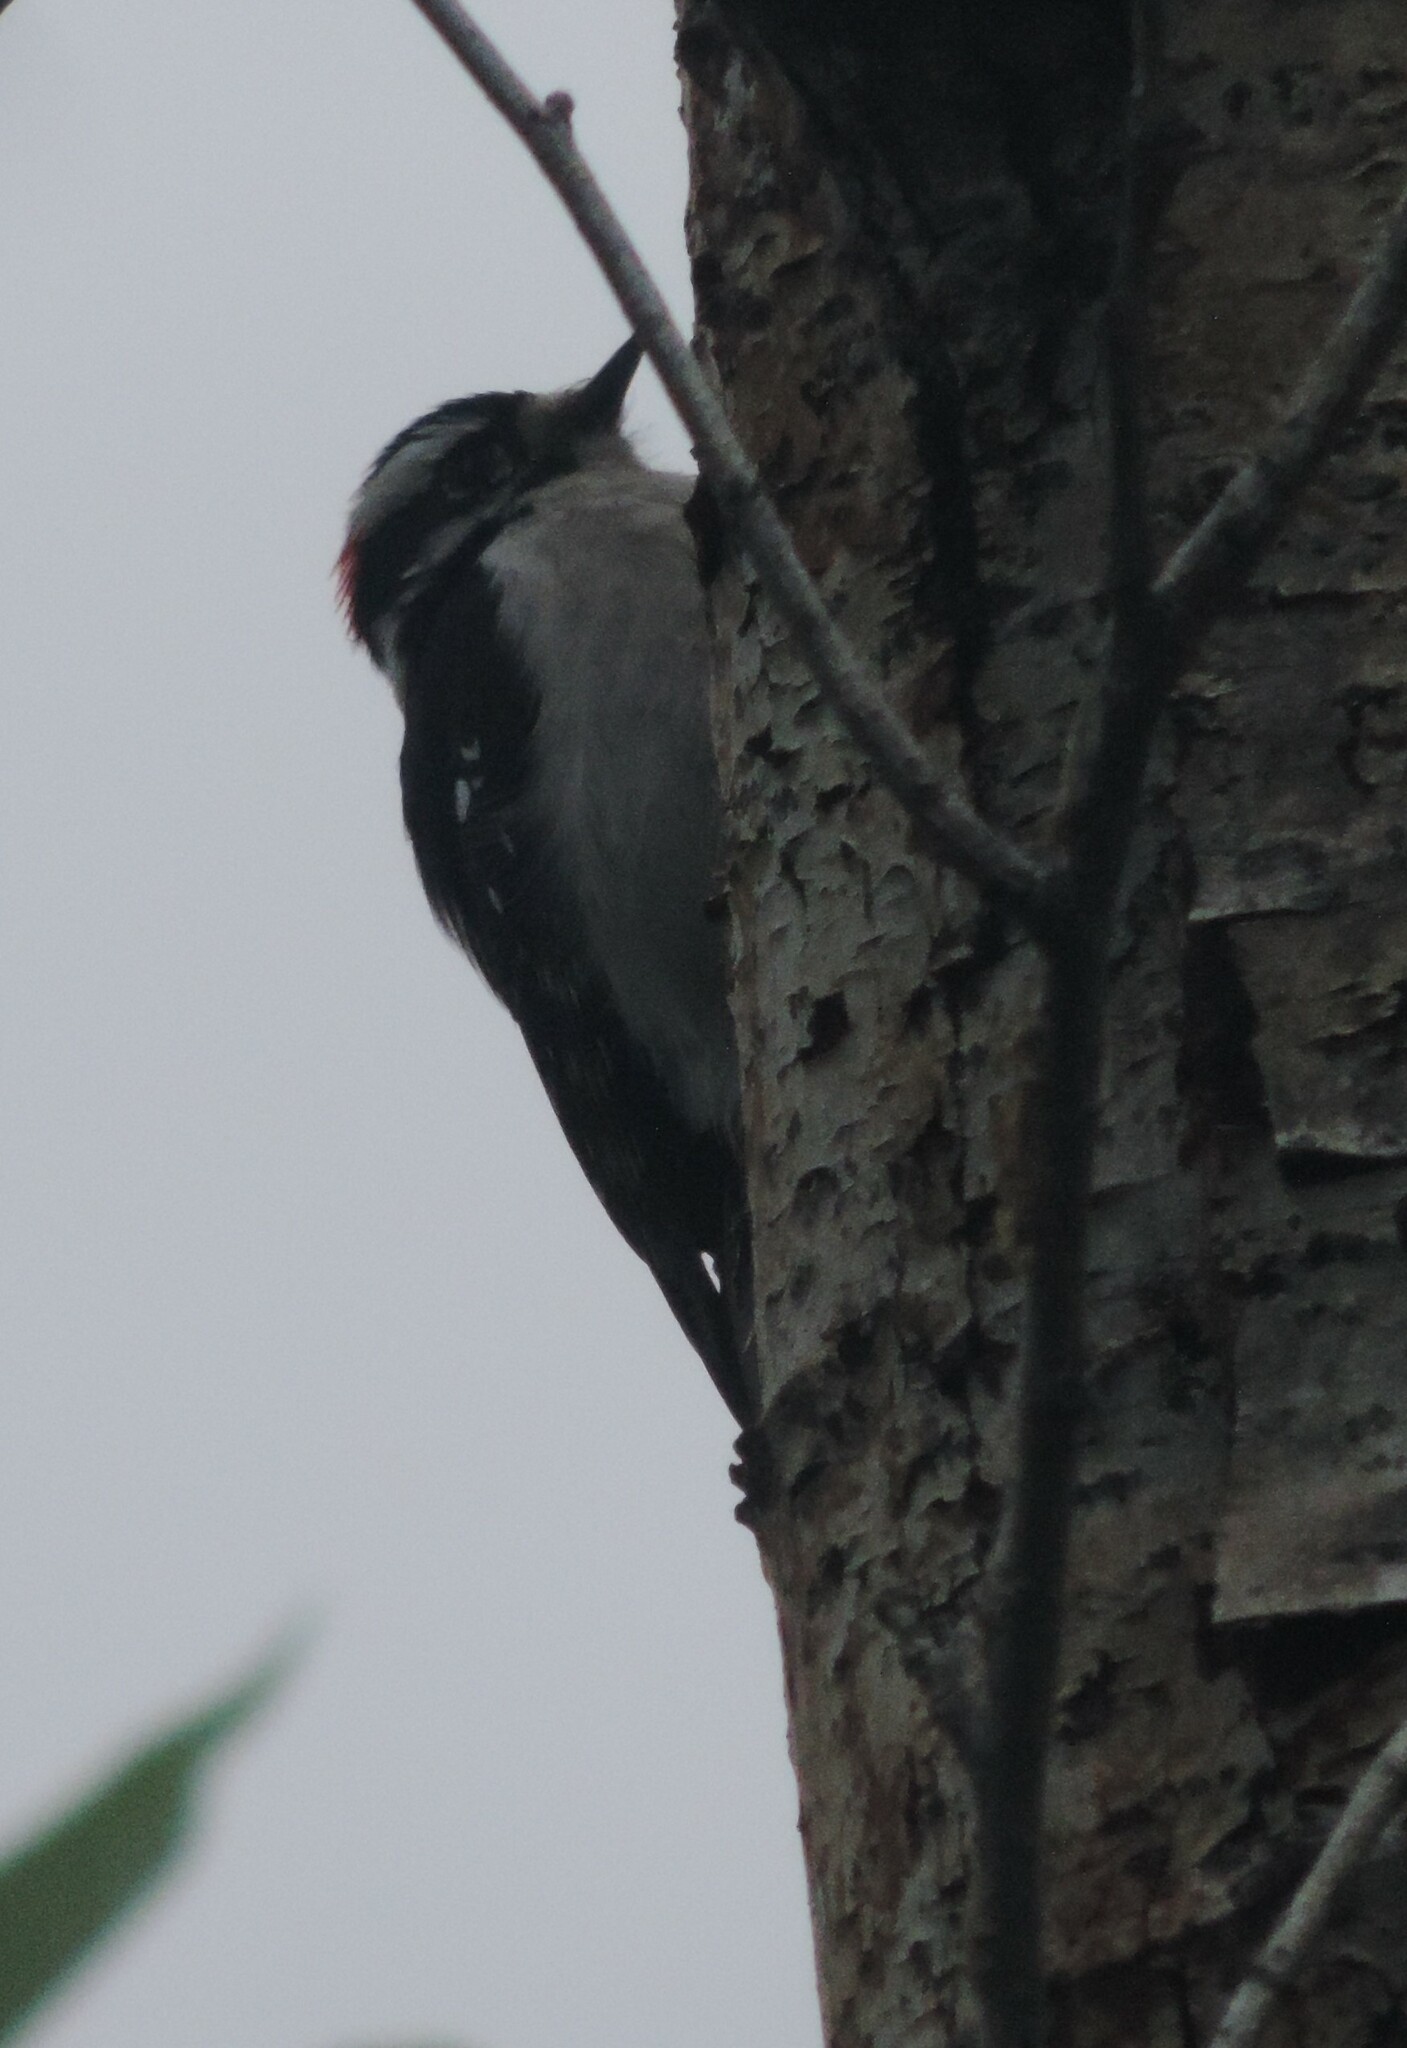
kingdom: Animalia
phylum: Chordata
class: Aves
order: Piciformes
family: Picidae
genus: Dryobates
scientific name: Dryobates pubescens
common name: Downy woodpecker
